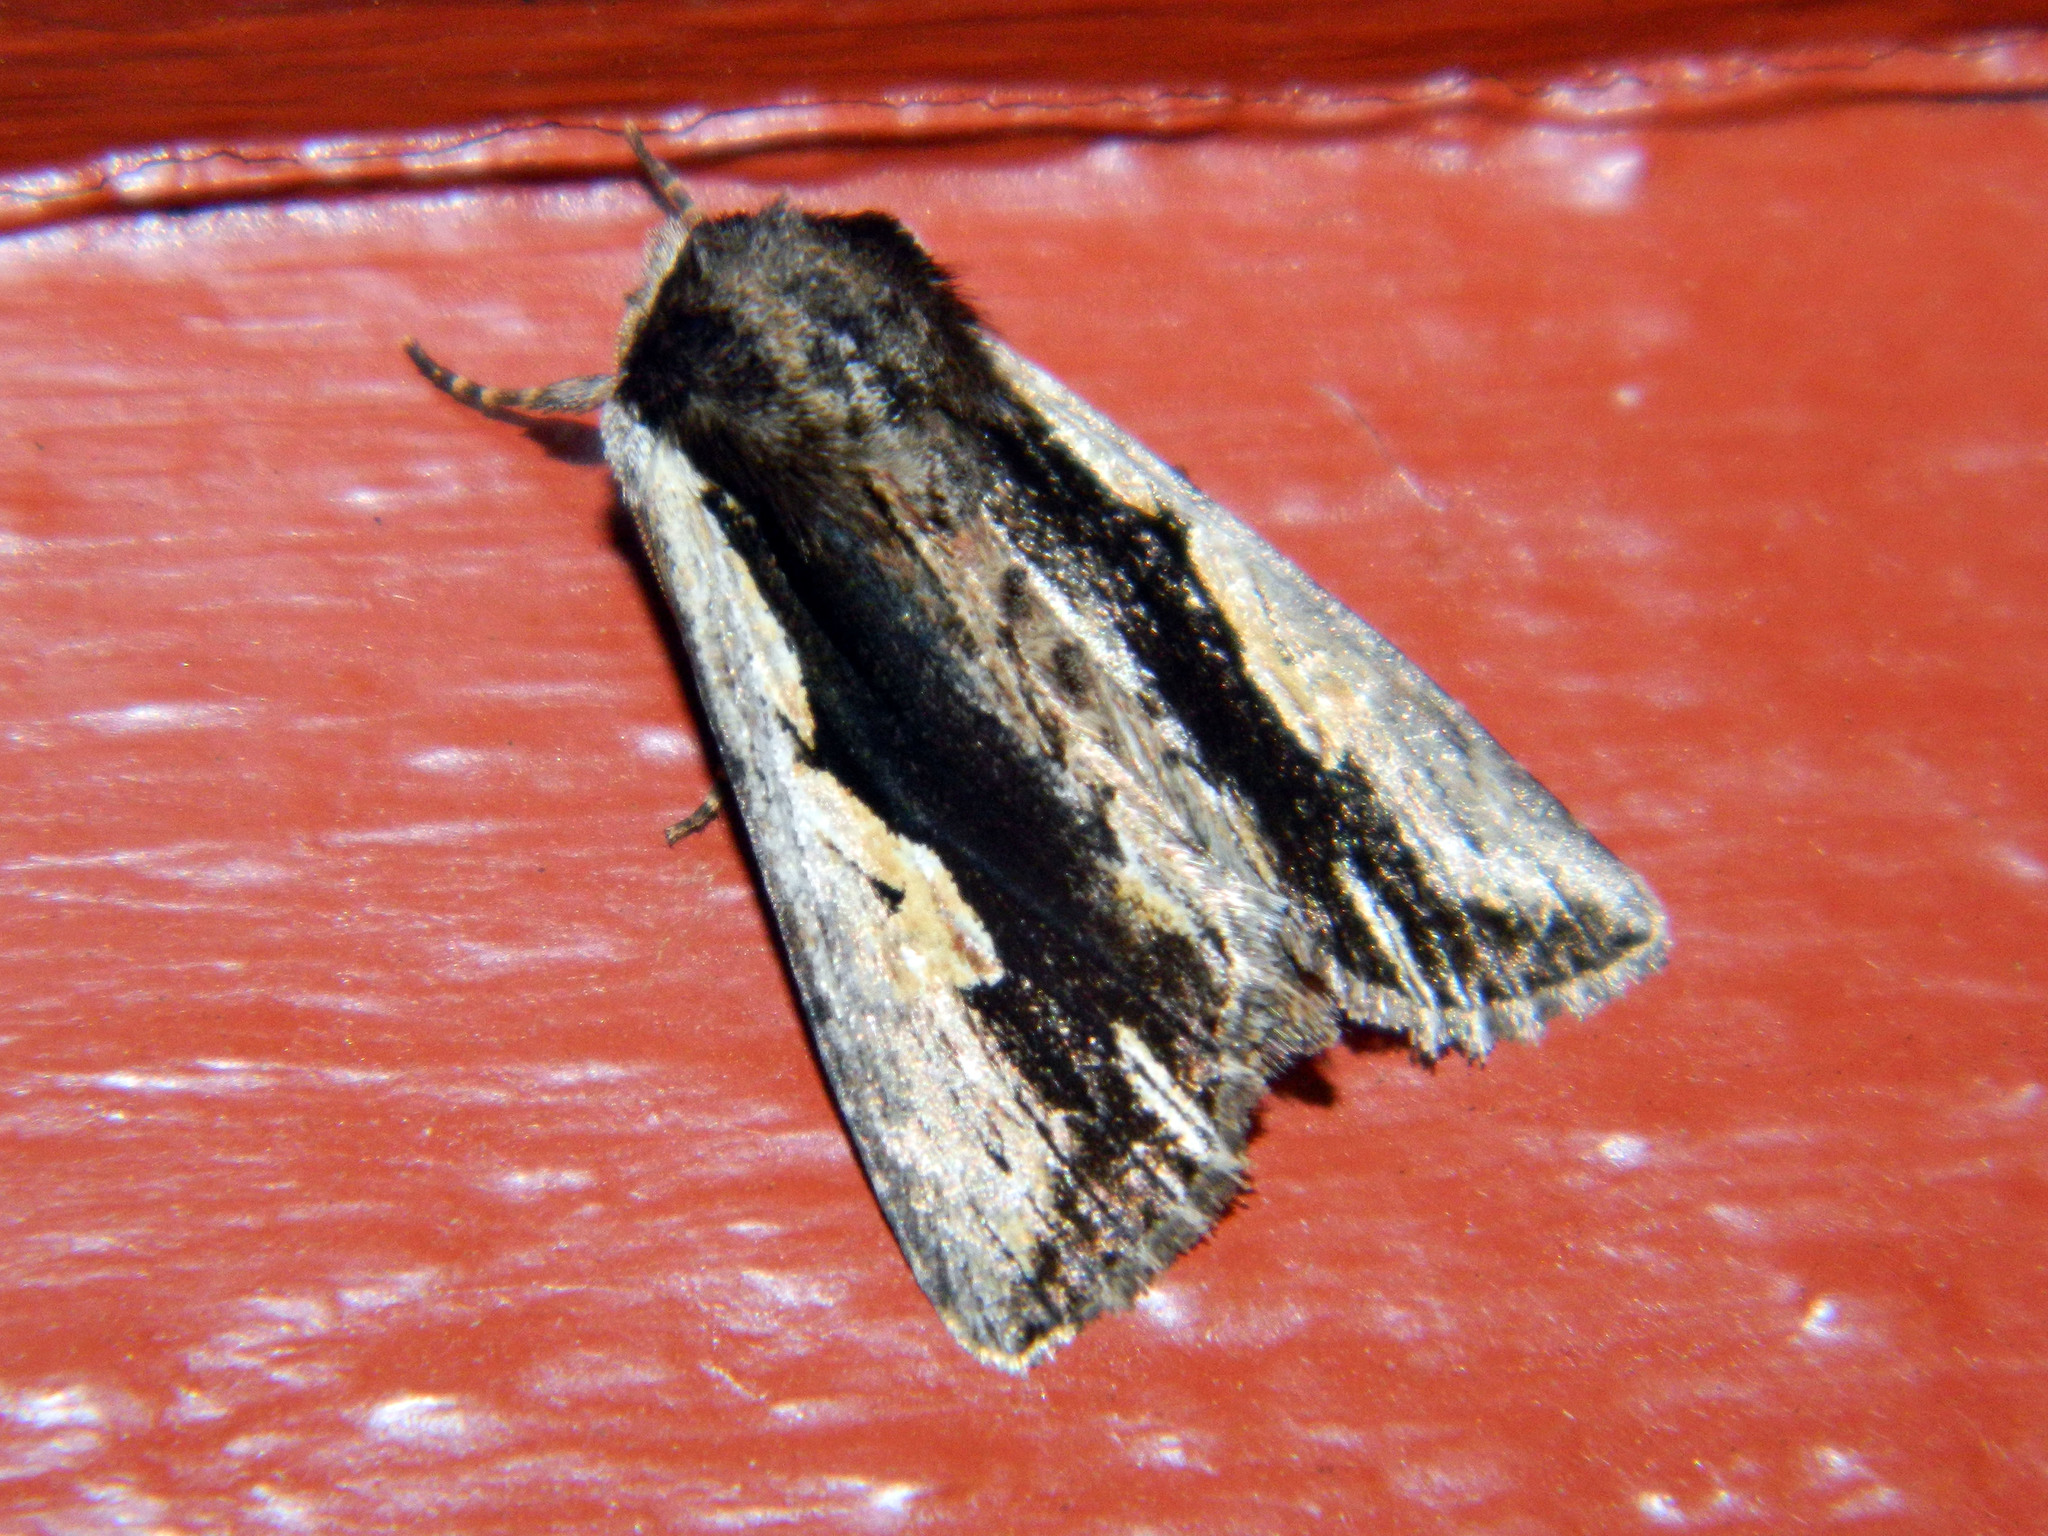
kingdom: Animalia
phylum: Arthropoda
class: Insecta
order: Lepidoptera
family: Noctuidae
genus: Achatia
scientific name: Achatia evicta
